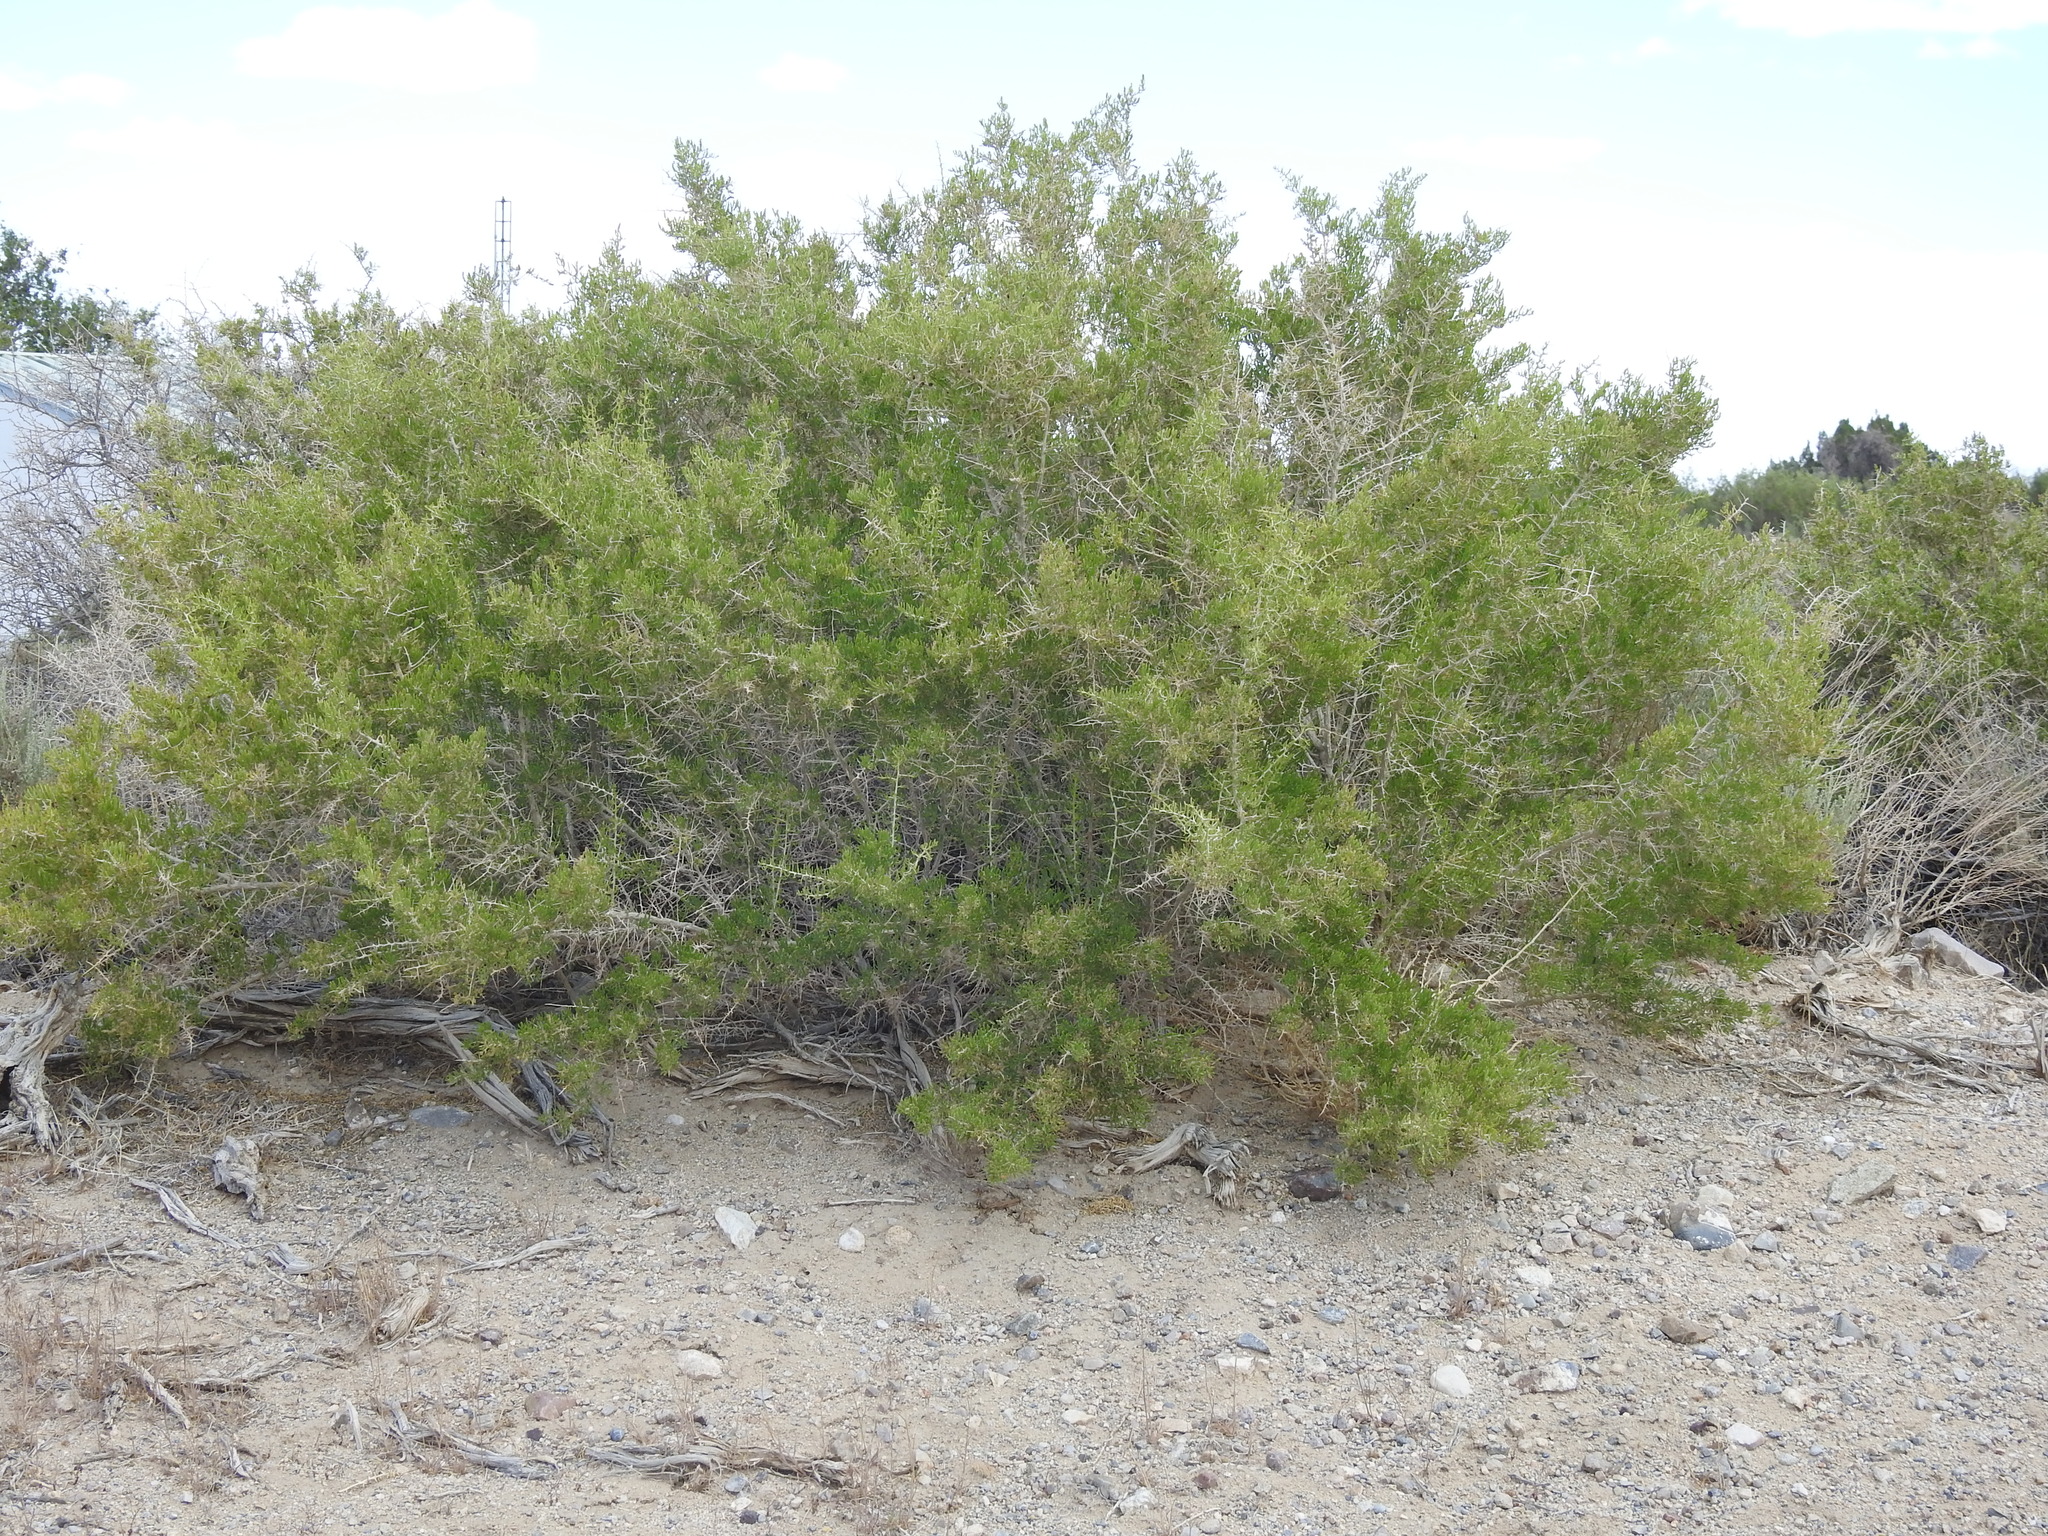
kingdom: Plantae
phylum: Tracheophyta
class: Magnoliopsida
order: Caryophyllales
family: Sarcobataceae
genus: Sarcobatus
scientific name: Sarcobatus vermiculatus
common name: Greasewood
